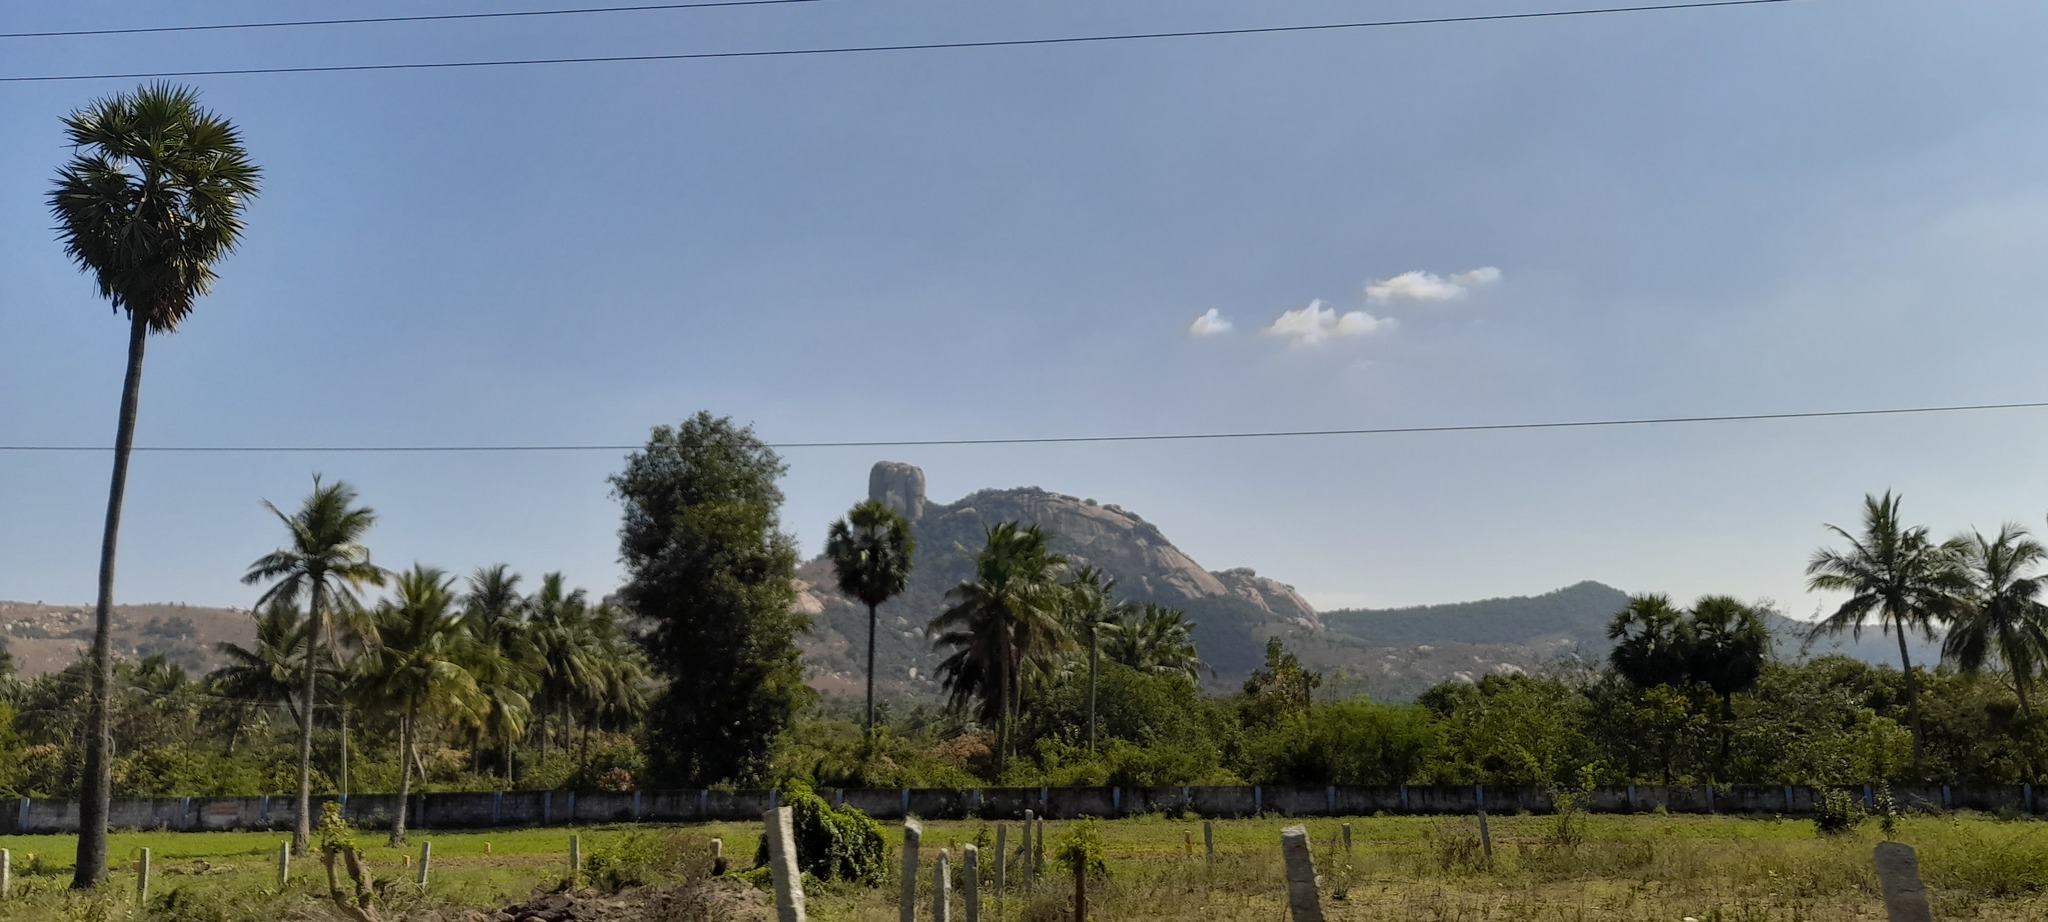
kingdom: Plantae
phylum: Tracheophyta
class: Liliopsida
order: Arecales
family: Arecaceae
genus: Borassus
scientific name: Borassus flabellifer
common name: Palmyra palm
